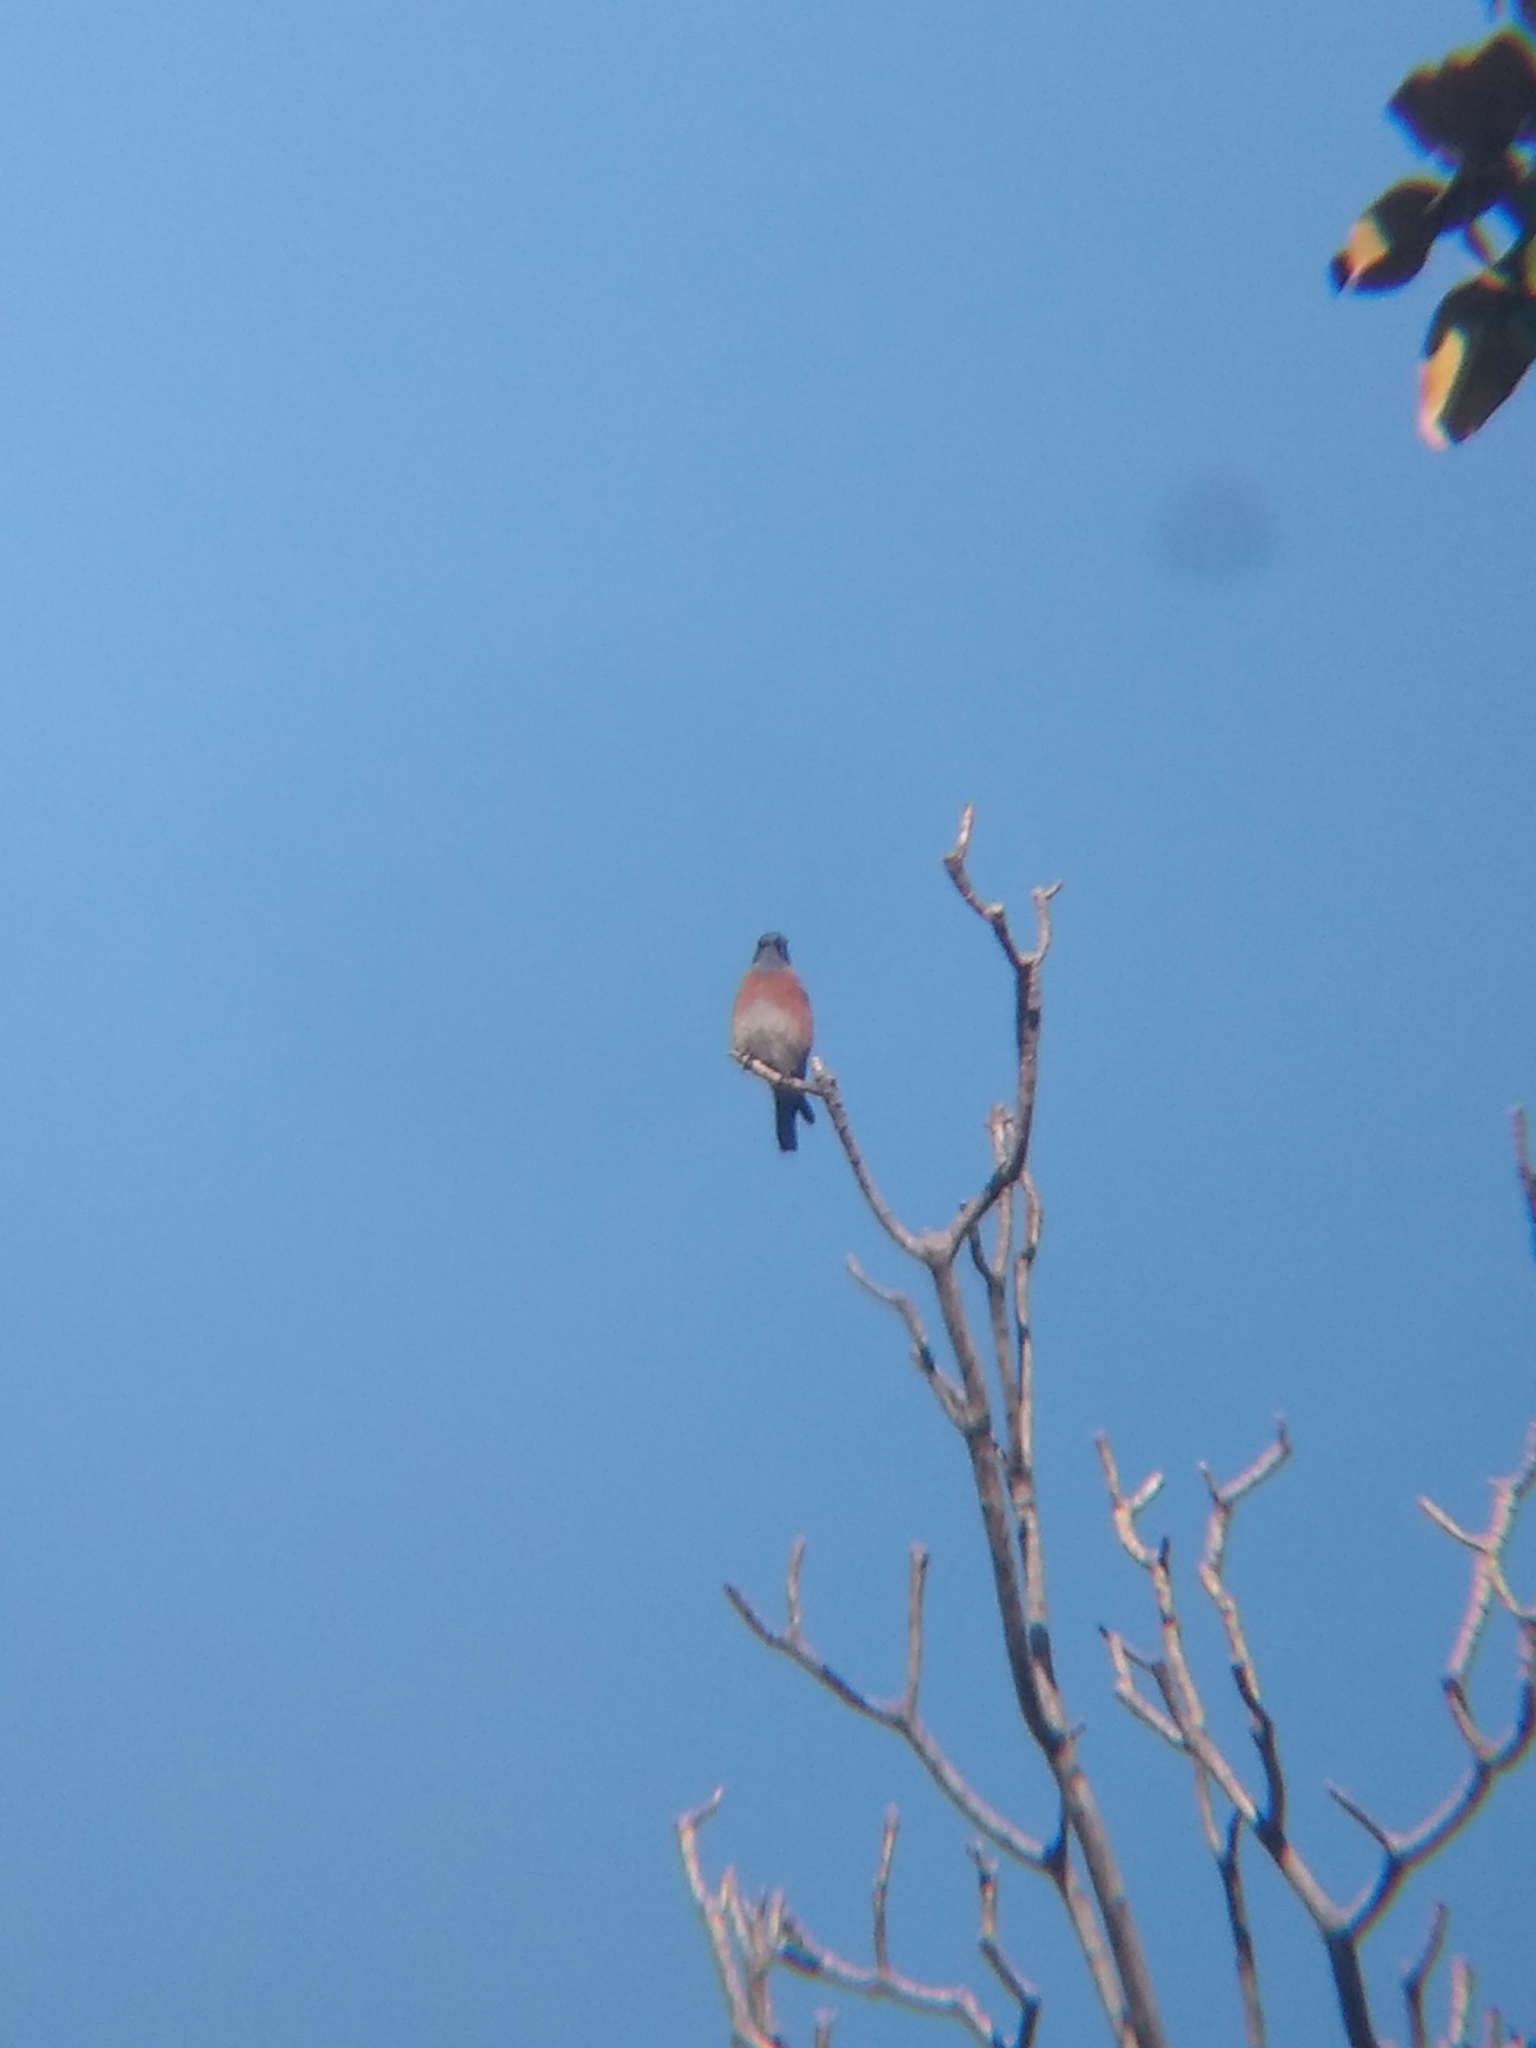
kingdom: Animalia
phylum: Chordata
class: Aves
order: Passeriformes
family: Turdidae
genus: Sialia
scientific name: Sialia mexicana
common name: Western bluebird
